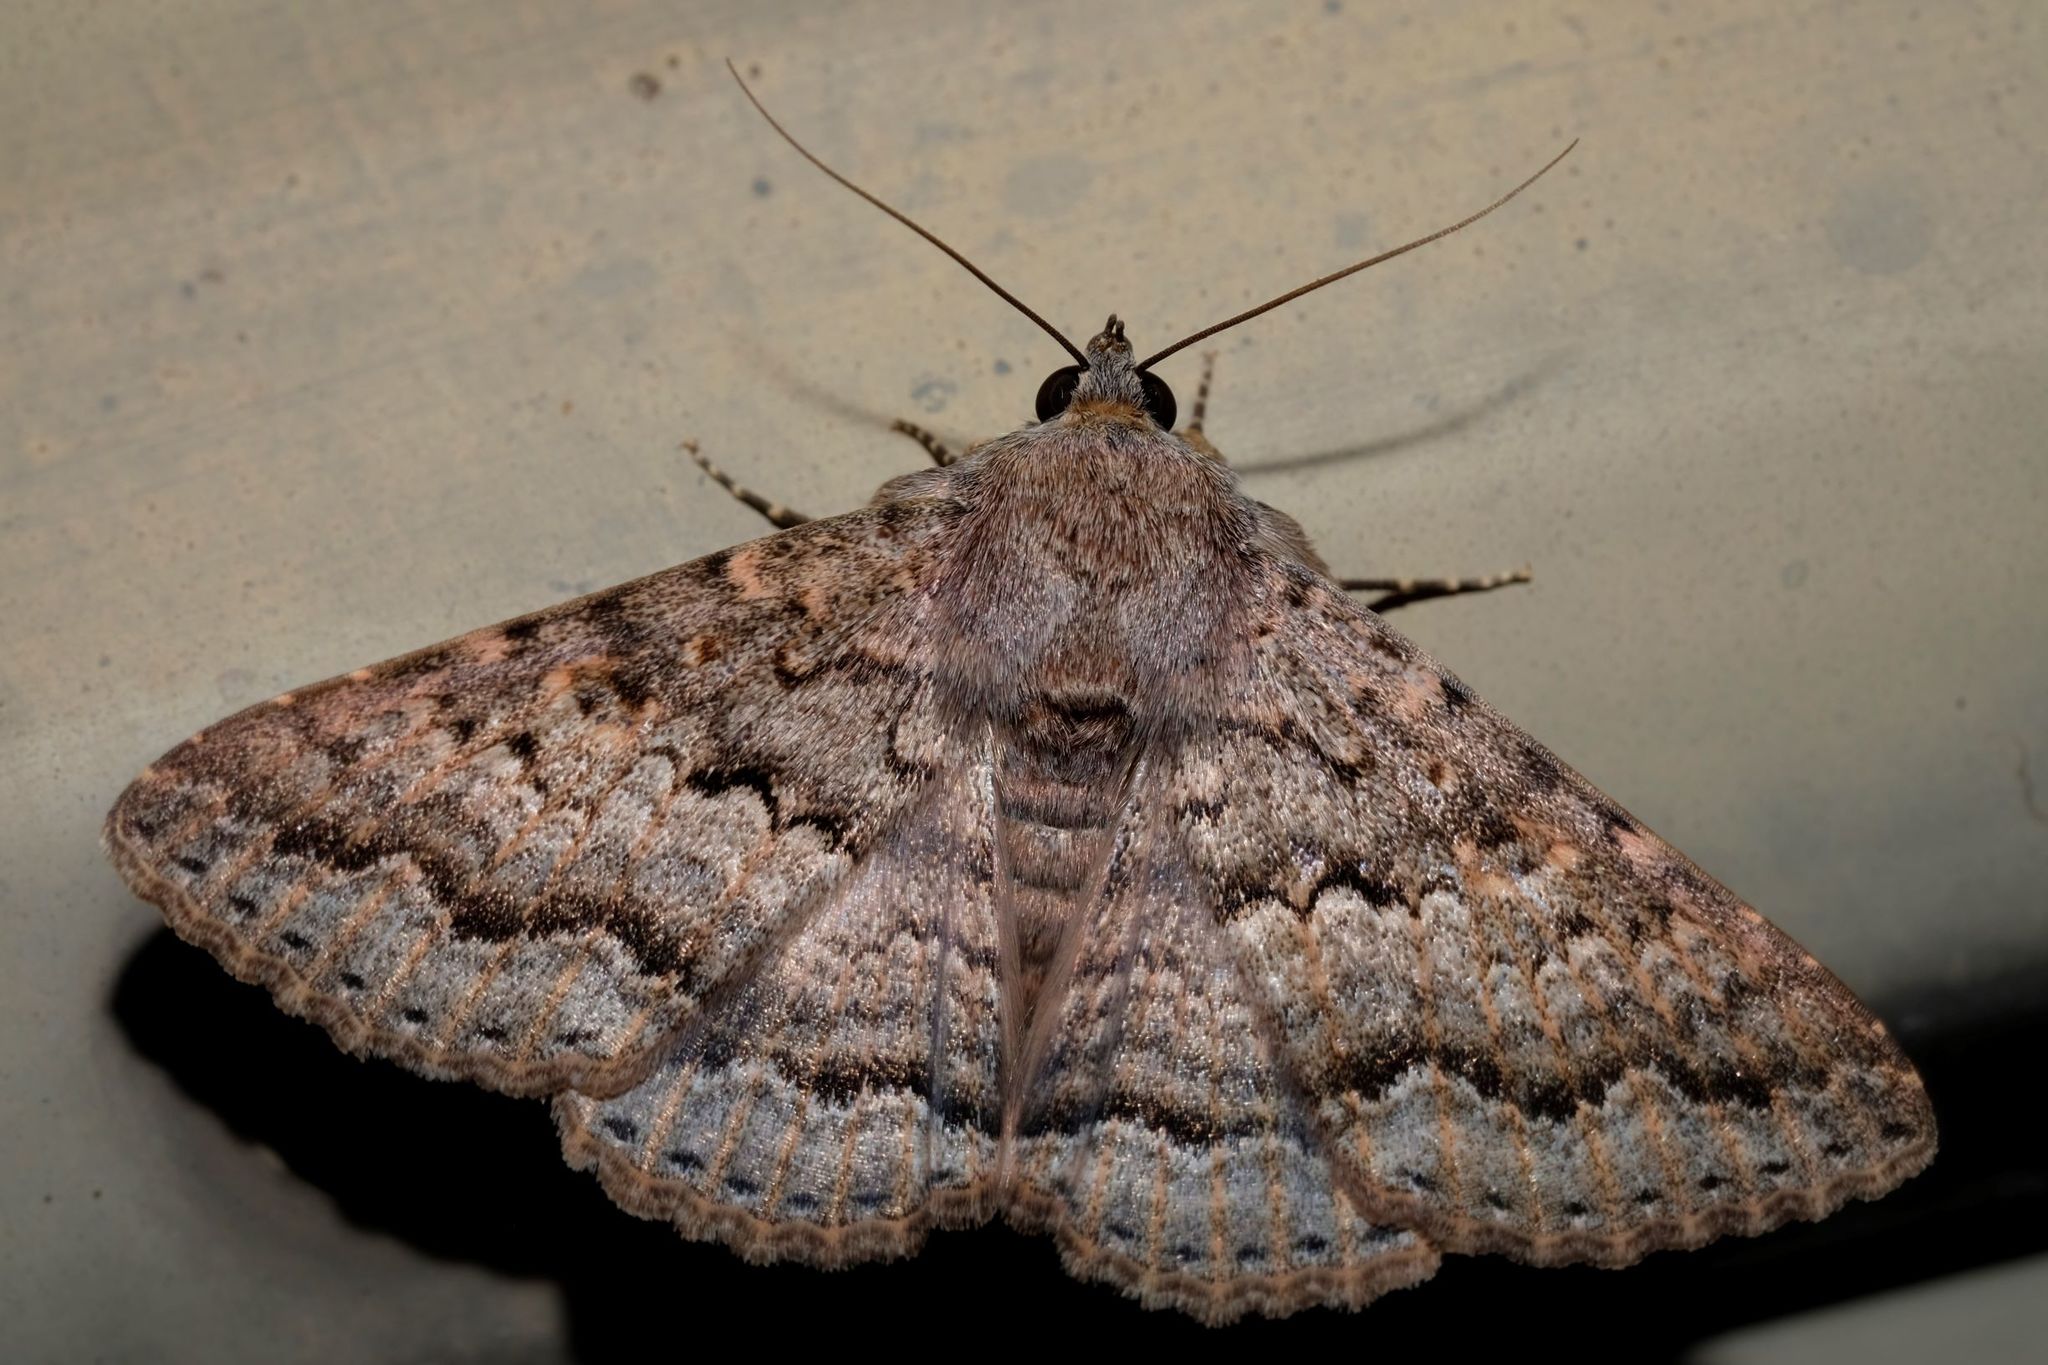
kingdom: Animalia
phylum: Arthropoda
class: Insecta
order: Lepidoptera
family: Erebidae
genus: Eudesmeola
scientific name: Eudesmeola lawsoni
